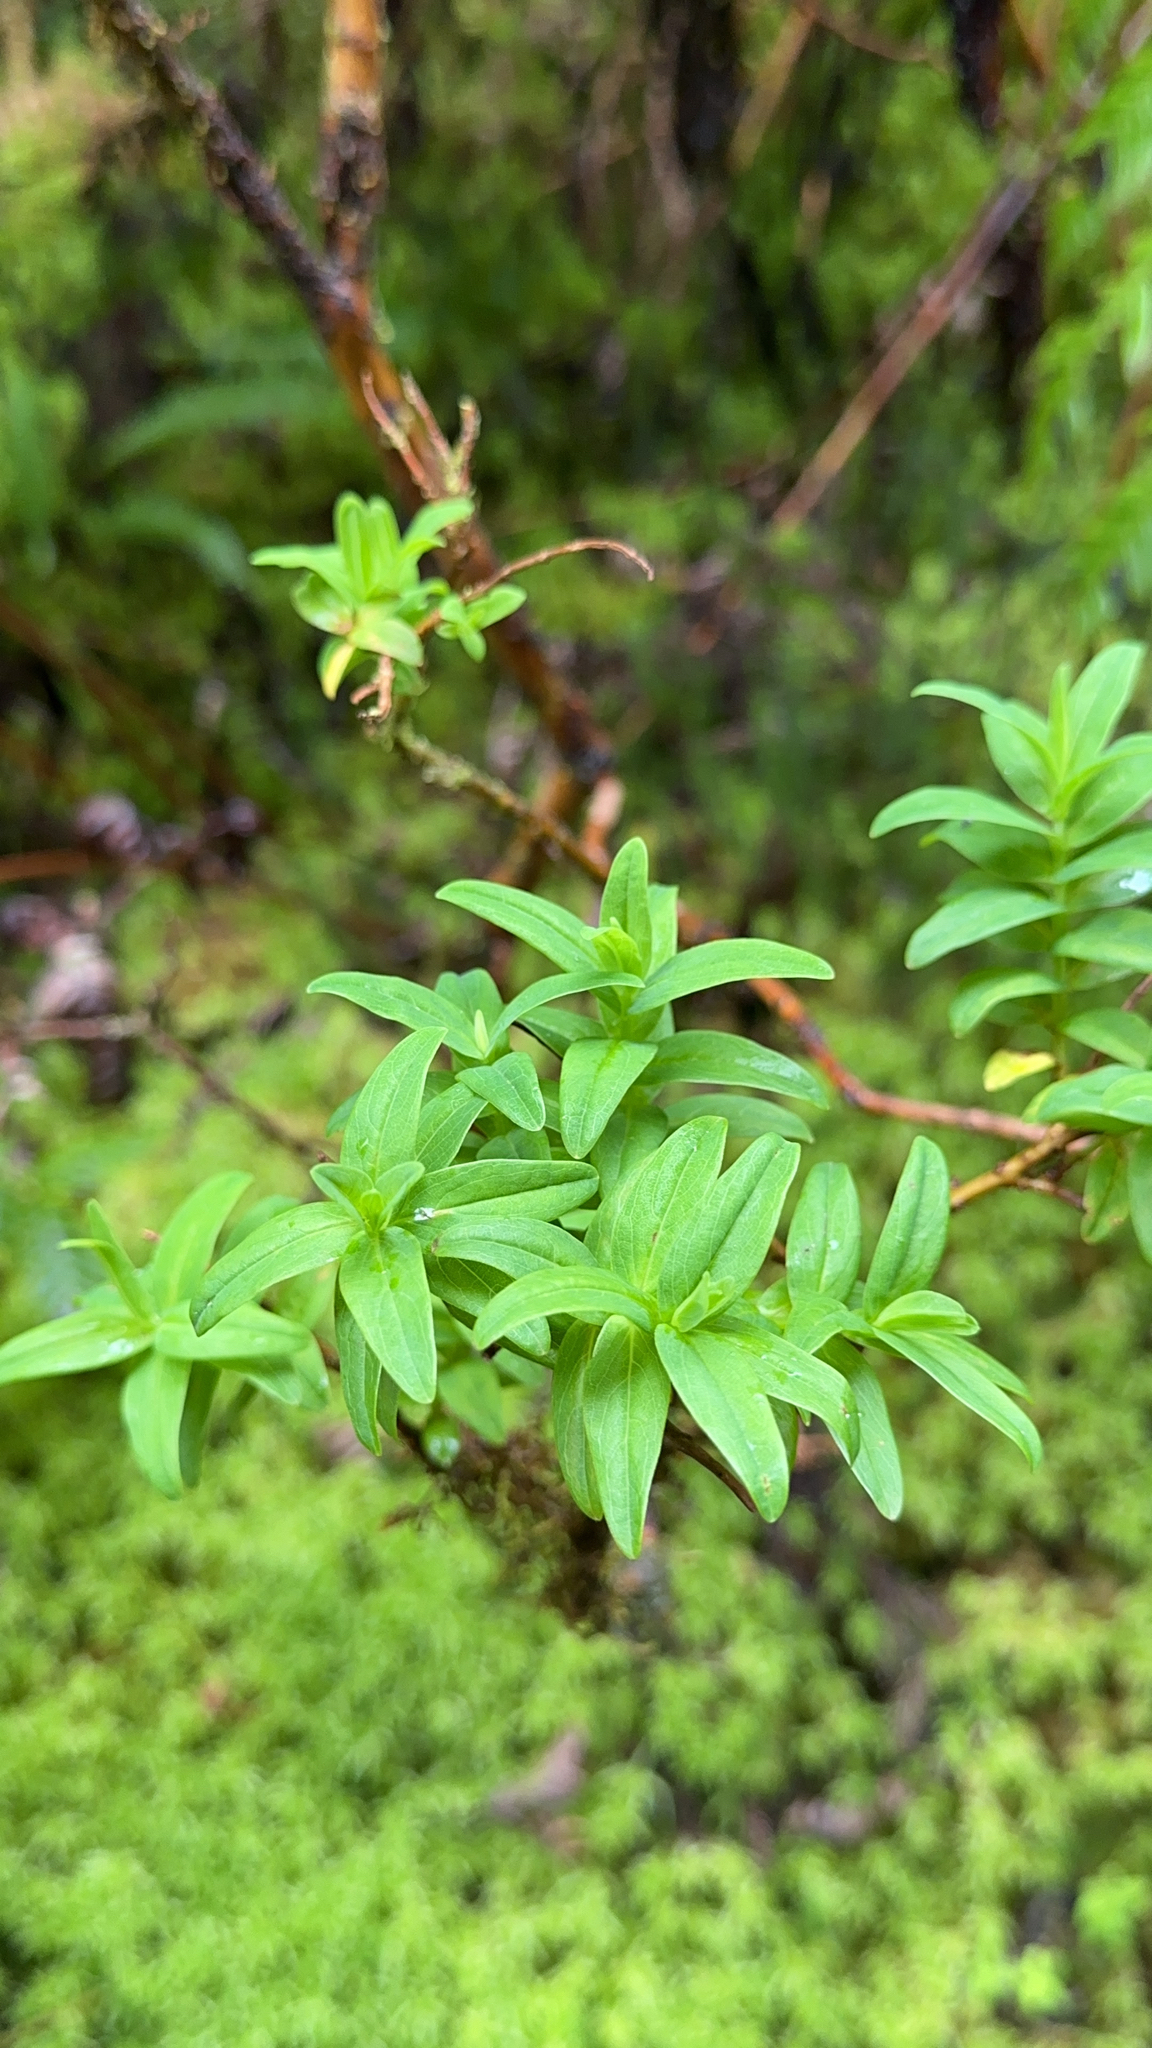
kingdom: Plantae
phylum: Tracheophyta
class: Magnoliopsida
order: Malpighiales
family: Hypericaceae
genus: Hypericum
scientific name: Hypericum foliosum
